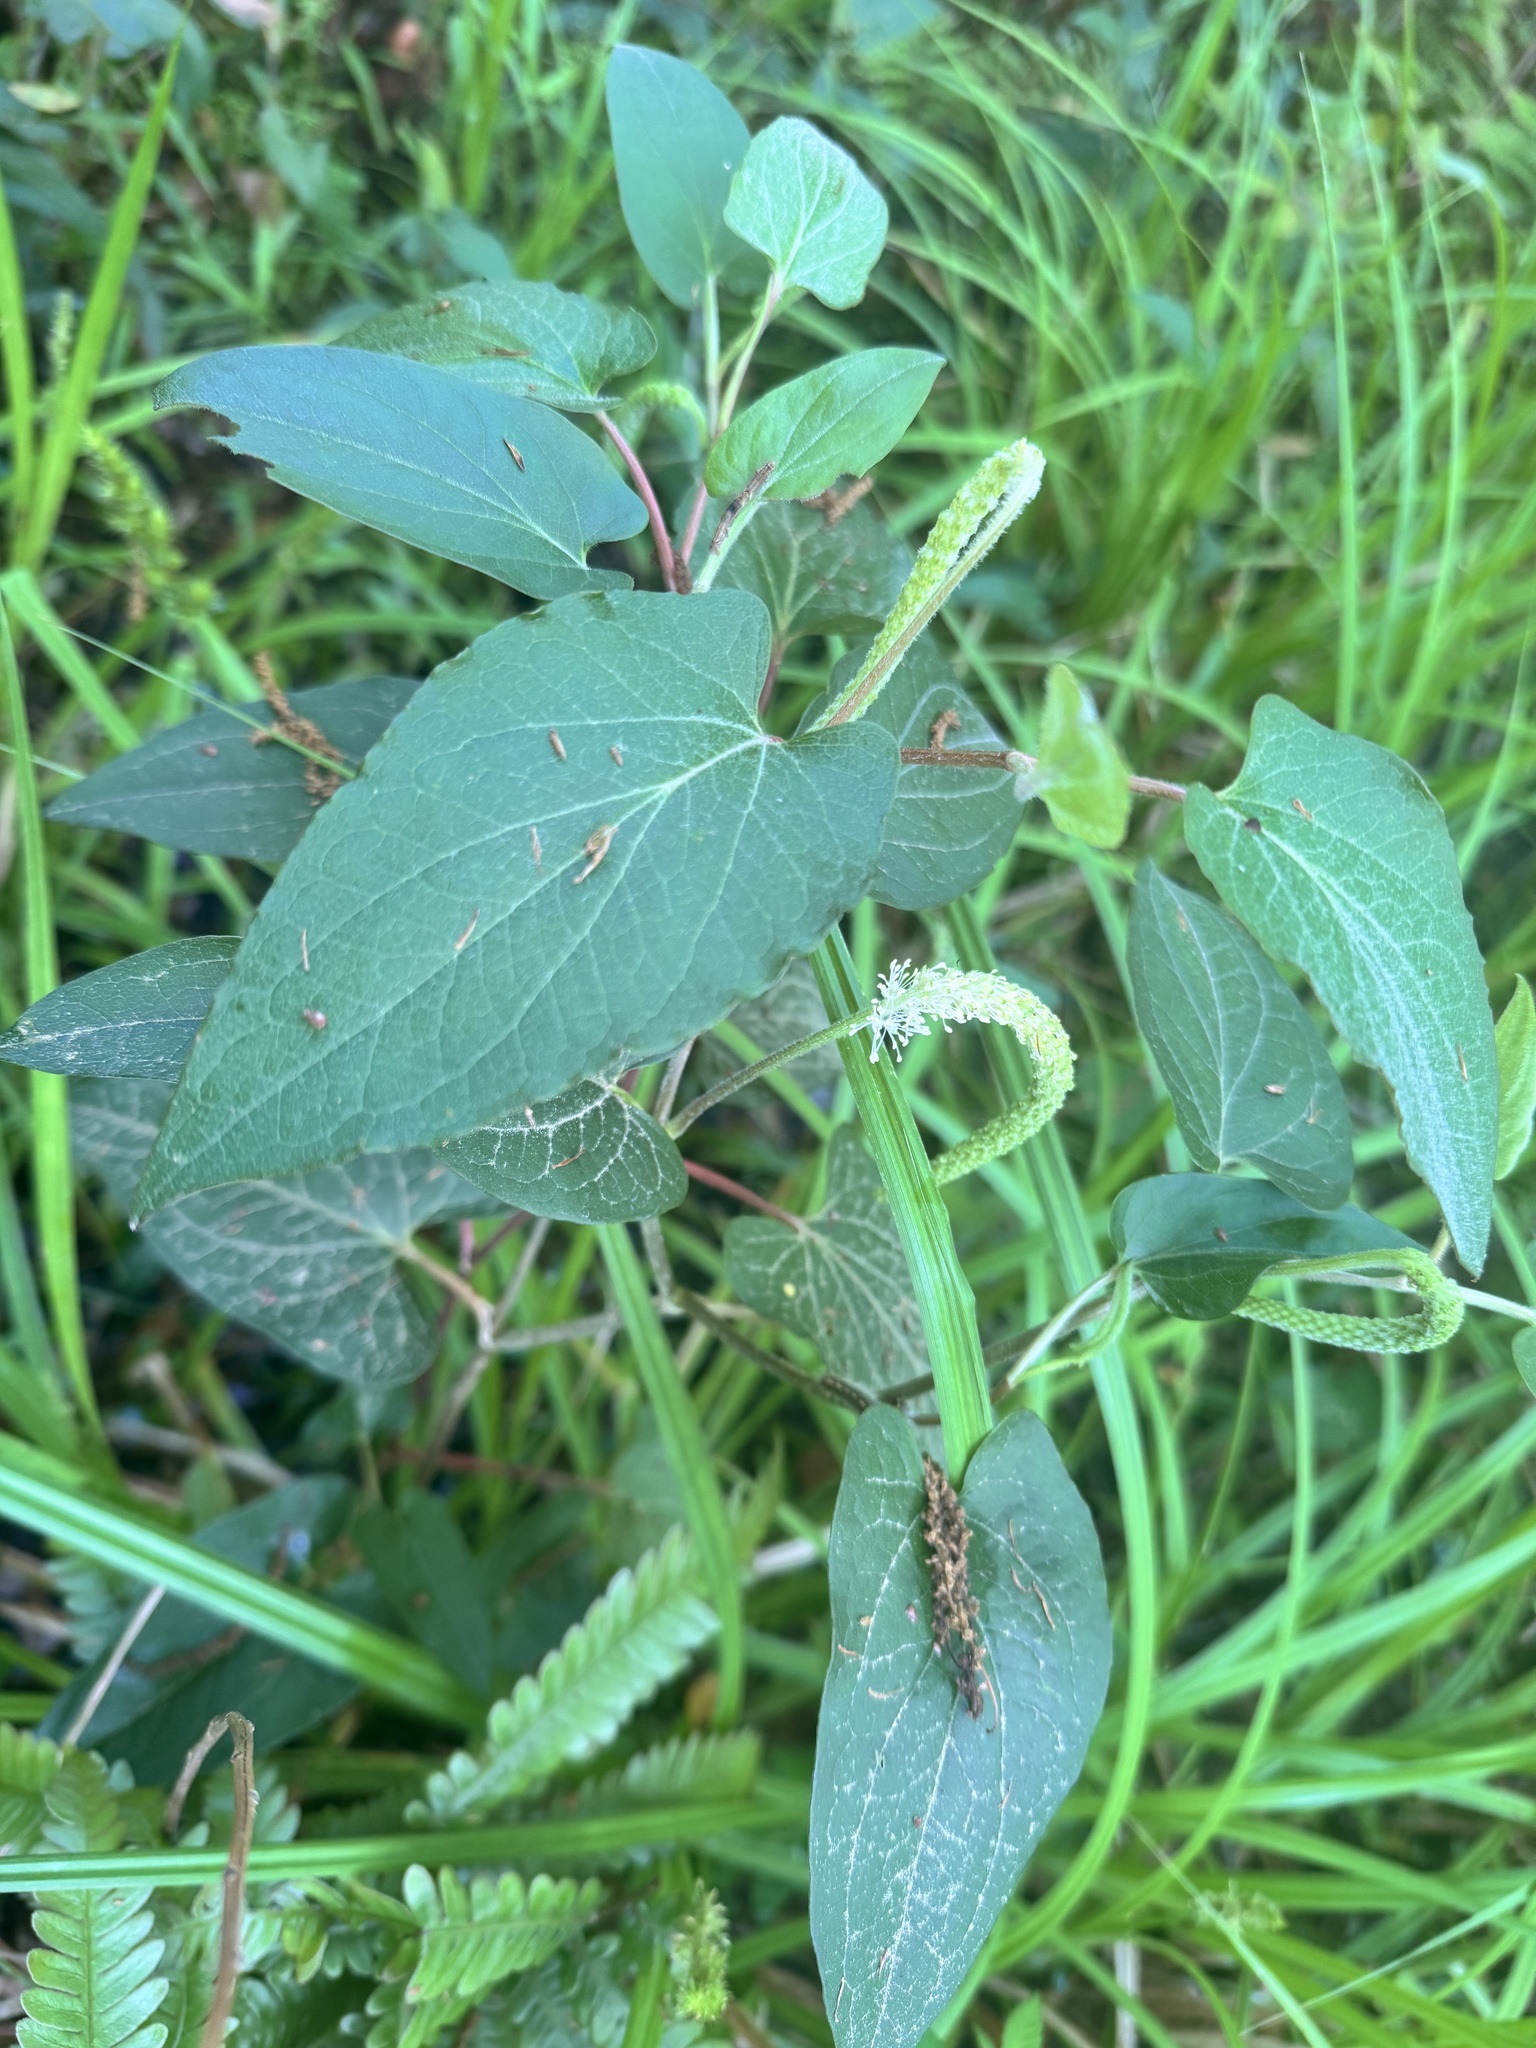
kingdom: Plantae
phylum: Tracheophyta
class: Magnoliopsida
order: Piperales
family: Saururaceae
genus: Saururus
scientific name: Saururus cernuus
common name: Lizard's-tail
